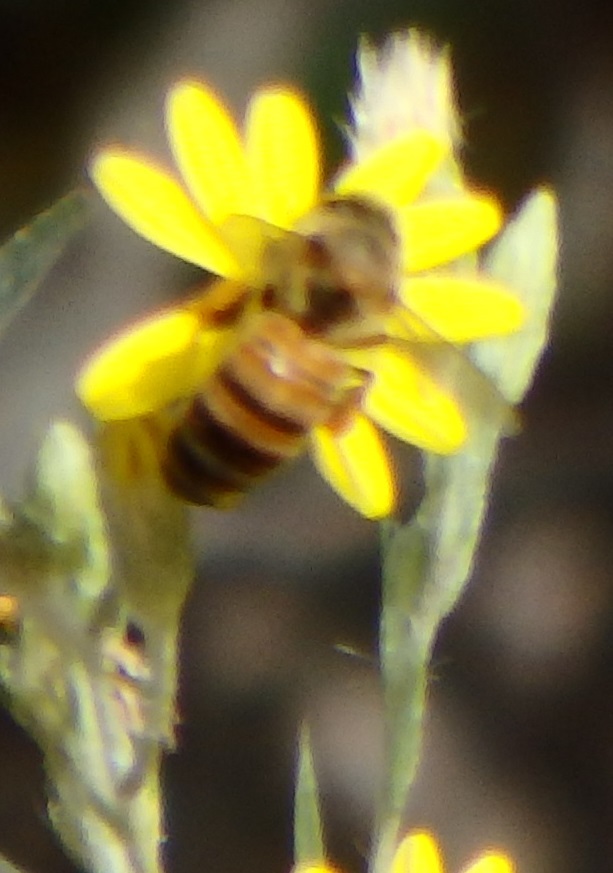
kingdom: Animalia
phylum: Arthropoda
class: Insecta
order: Hymenoptera
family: Apidae
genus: Apis
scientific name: Apis mellifera
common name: Honey bee
